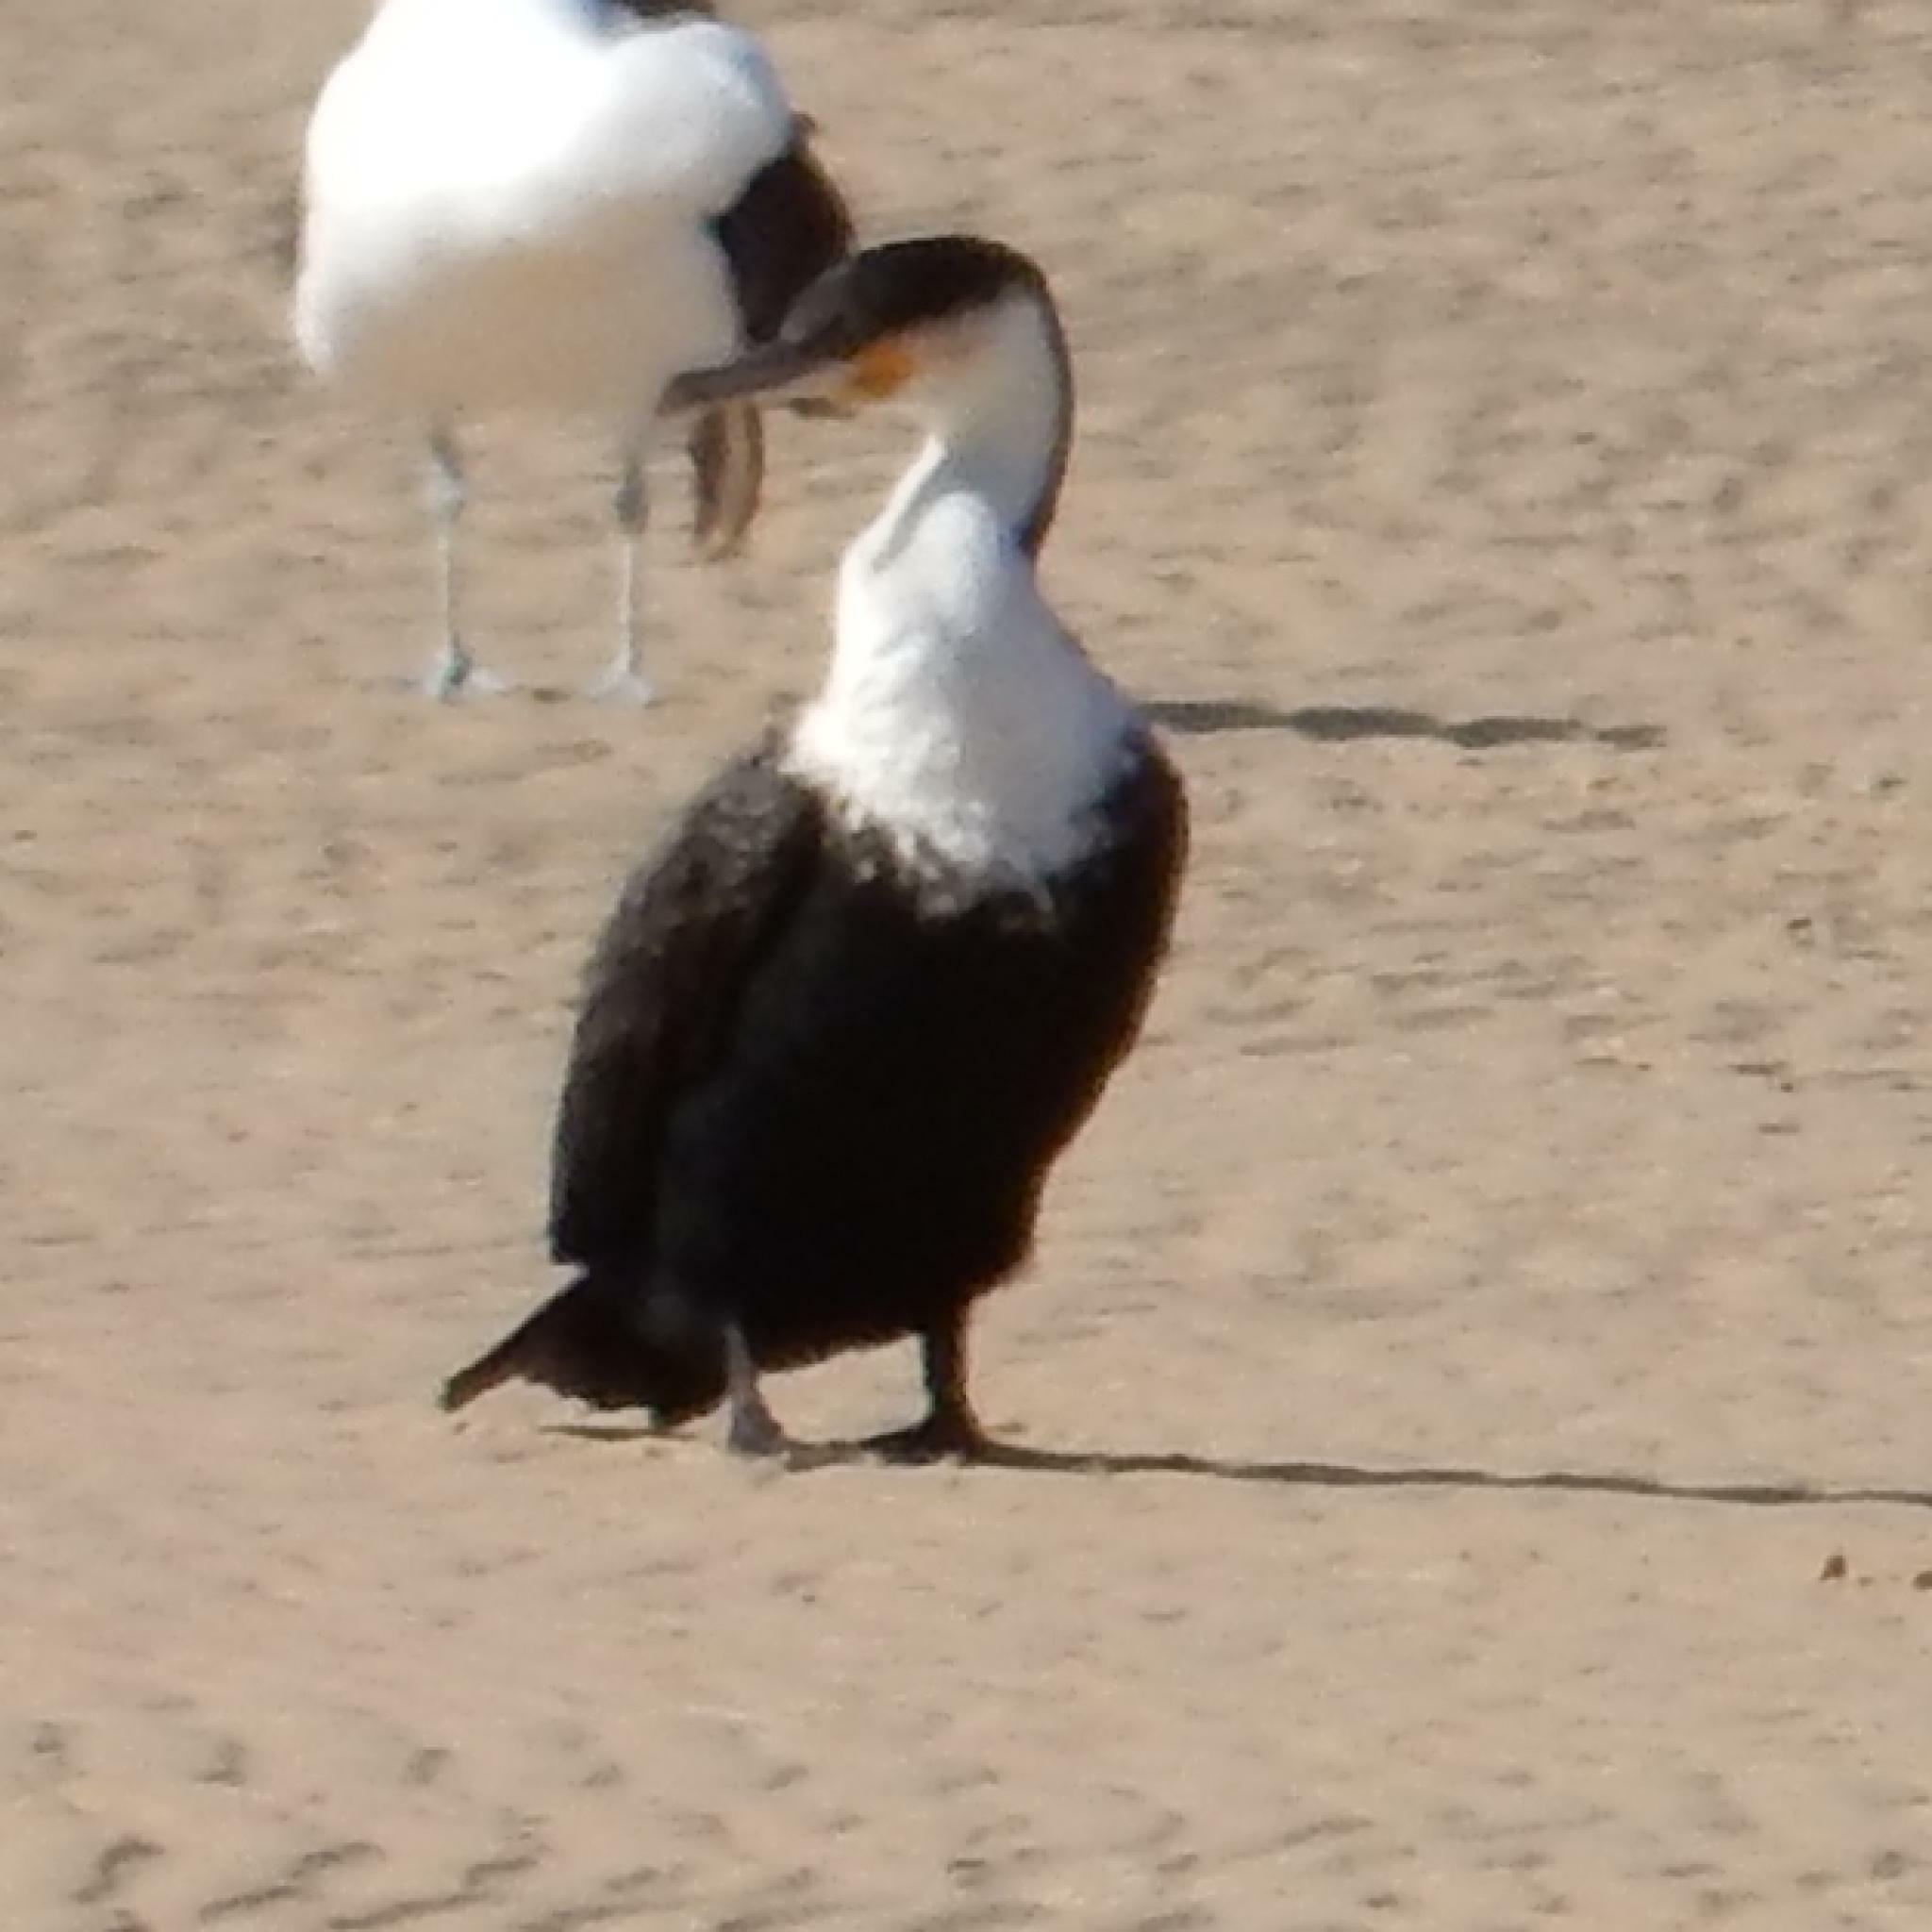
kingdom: Animalia
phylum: Chordata
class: Aves
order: Suliformes
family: Phalacrocoracidae
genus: Phalacrocorax
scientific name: Phalacrocorax carbo
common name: Great cormorant
